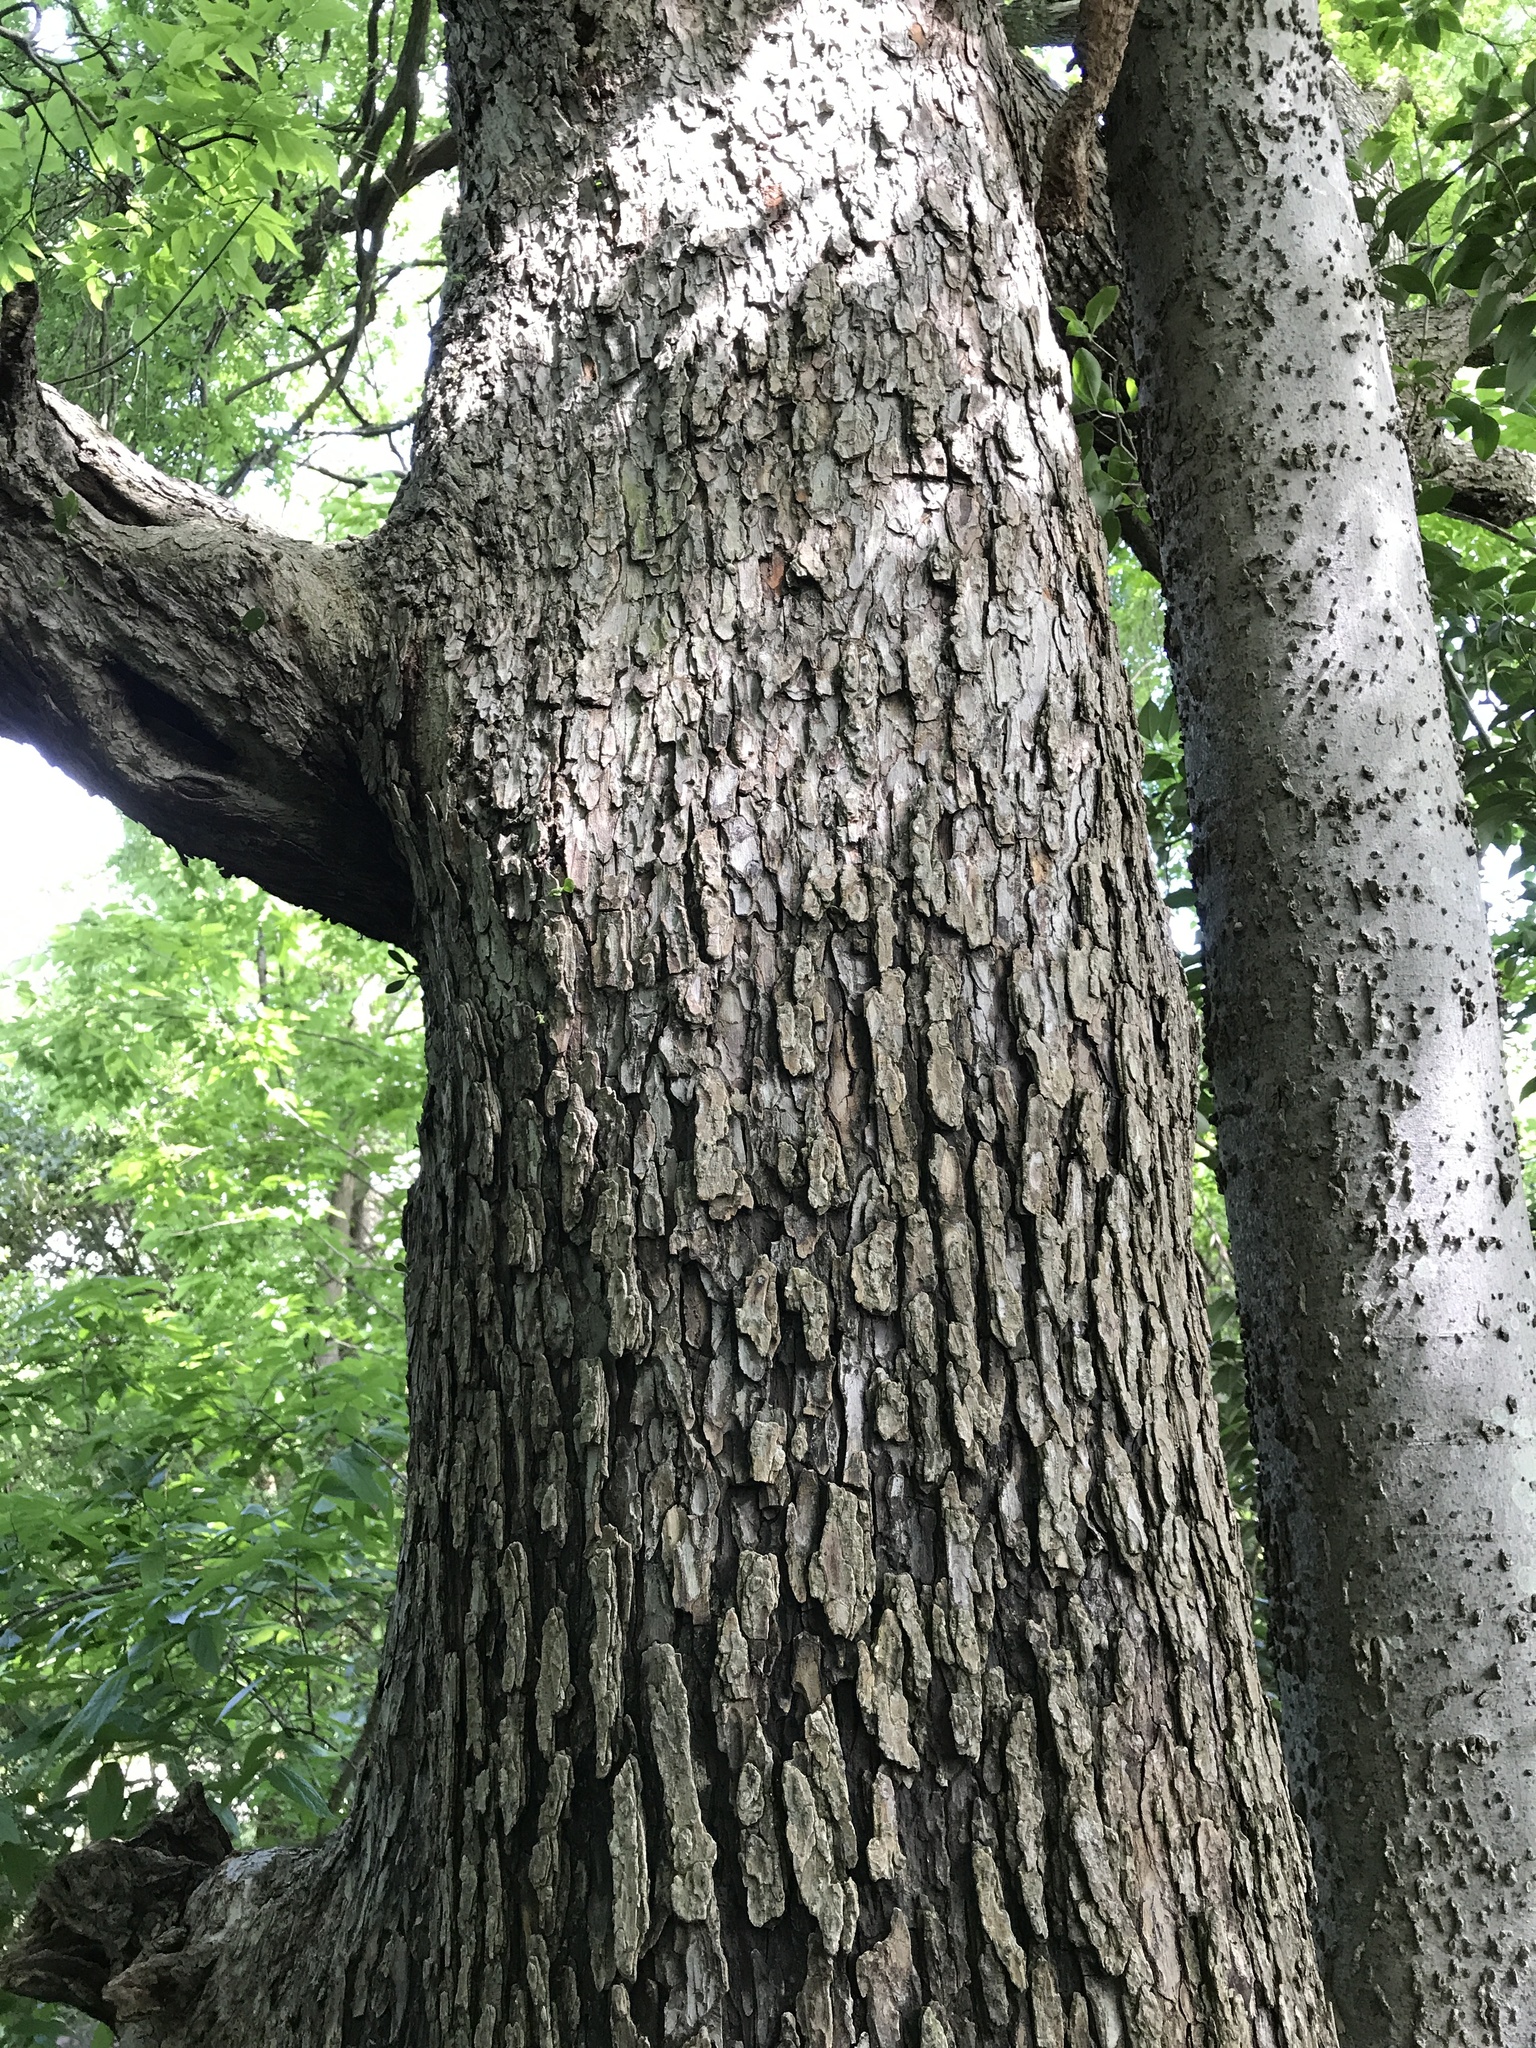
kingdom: Plantae
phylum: Tracheophyta
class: Magnoliopsida
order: Rosales
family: Ulmaceae
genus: Ulmus
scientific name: Ulmus crassifolia
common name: Basket elm
